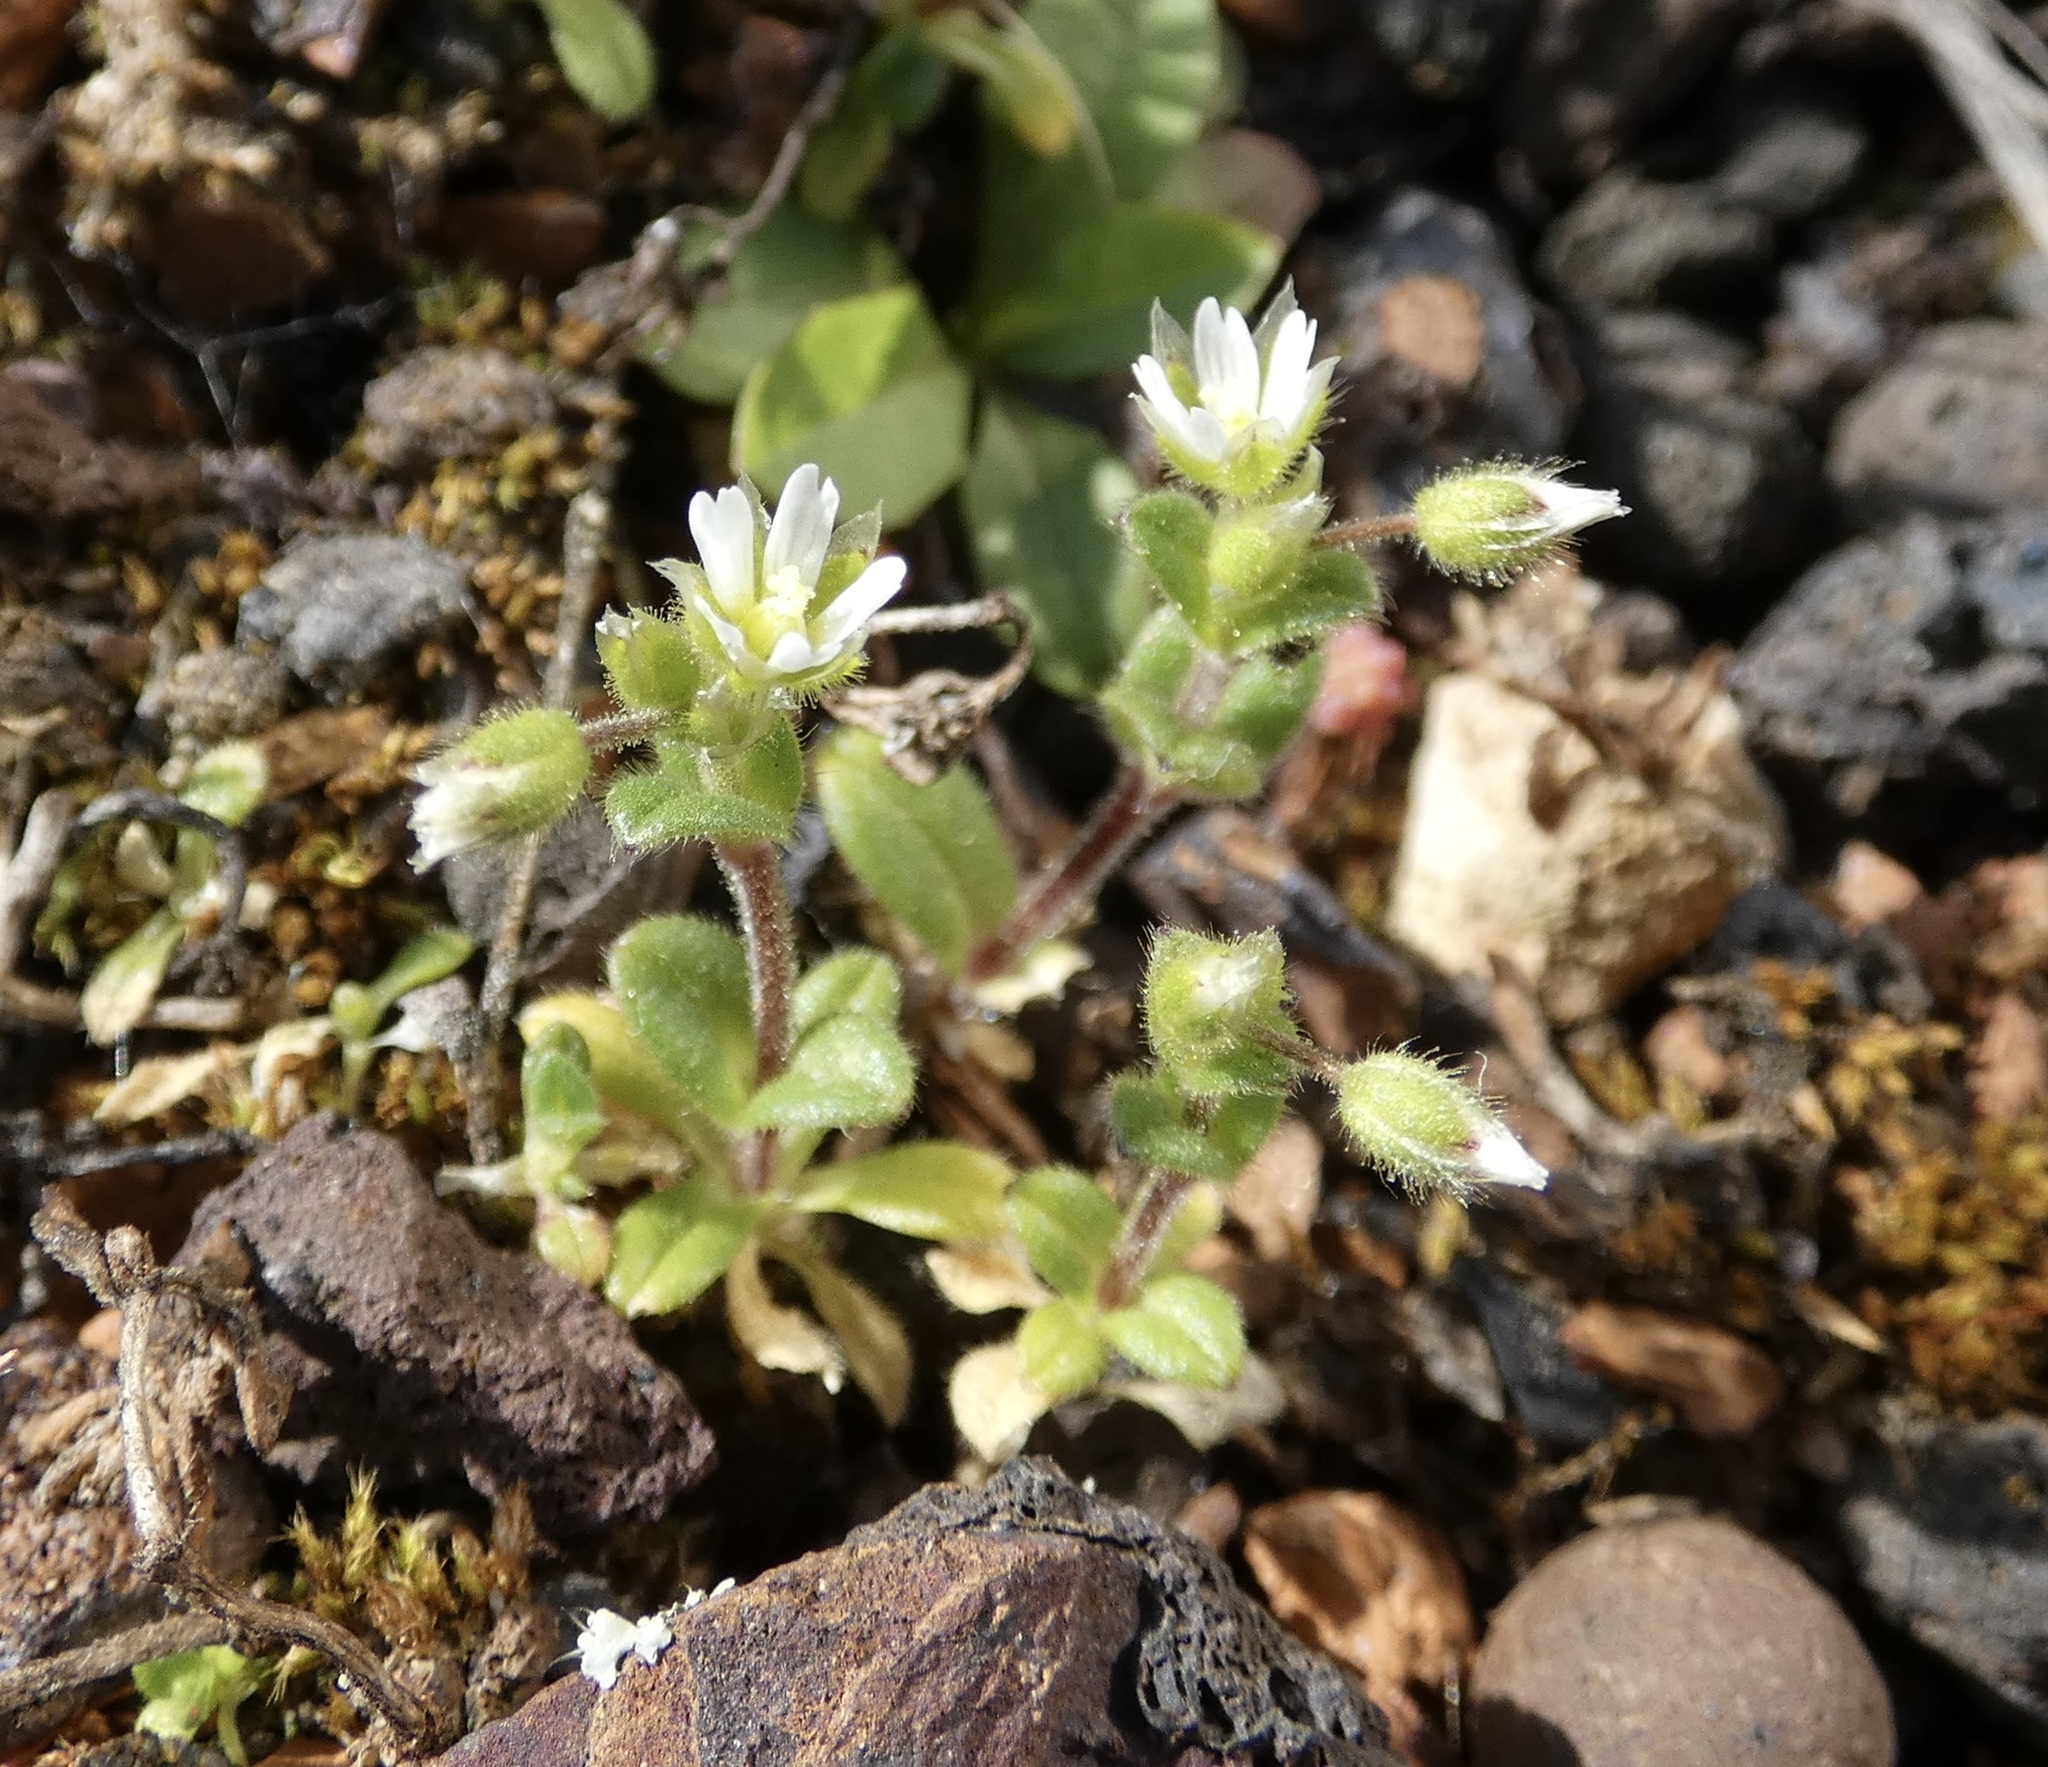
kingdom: Plantae
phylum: Tracheophyta
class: Magnoliopsida
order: Caryophyllales
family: Caryophyllaceae
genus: Cerastium
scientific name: Cerastium semidecandrum
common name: Little mouse-ear
